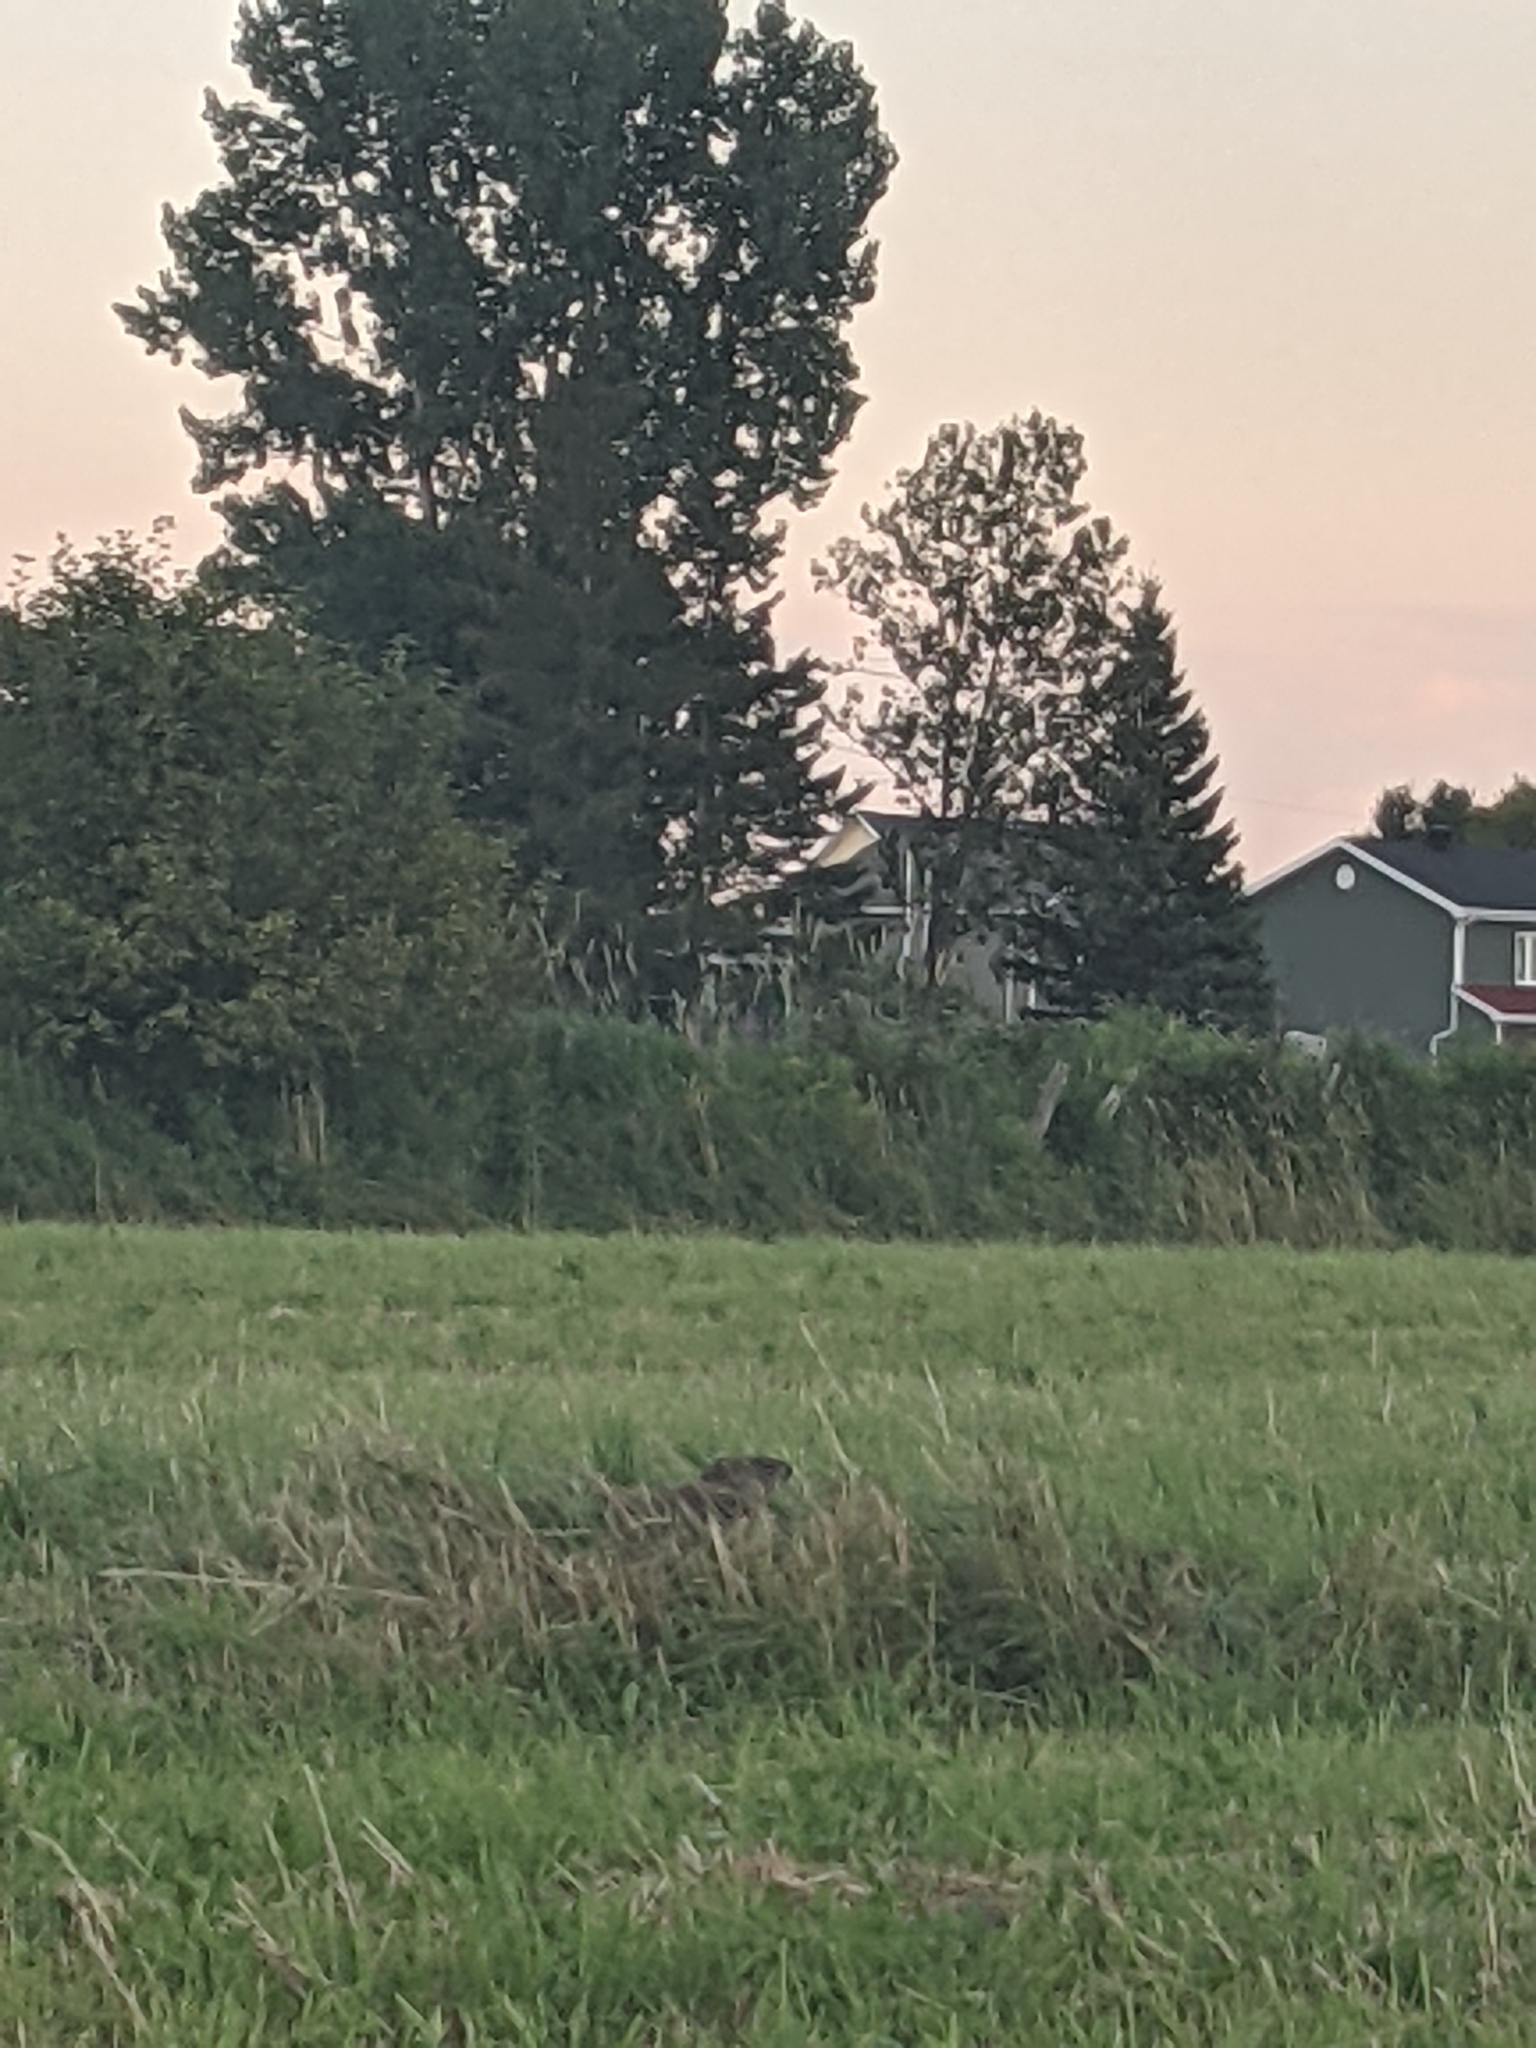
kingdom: Animalia
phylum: Chordata
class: Mammalia
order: Rodentia
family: Sciuridae
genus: Marmota
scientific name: Marmota monax
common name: Groundhog
